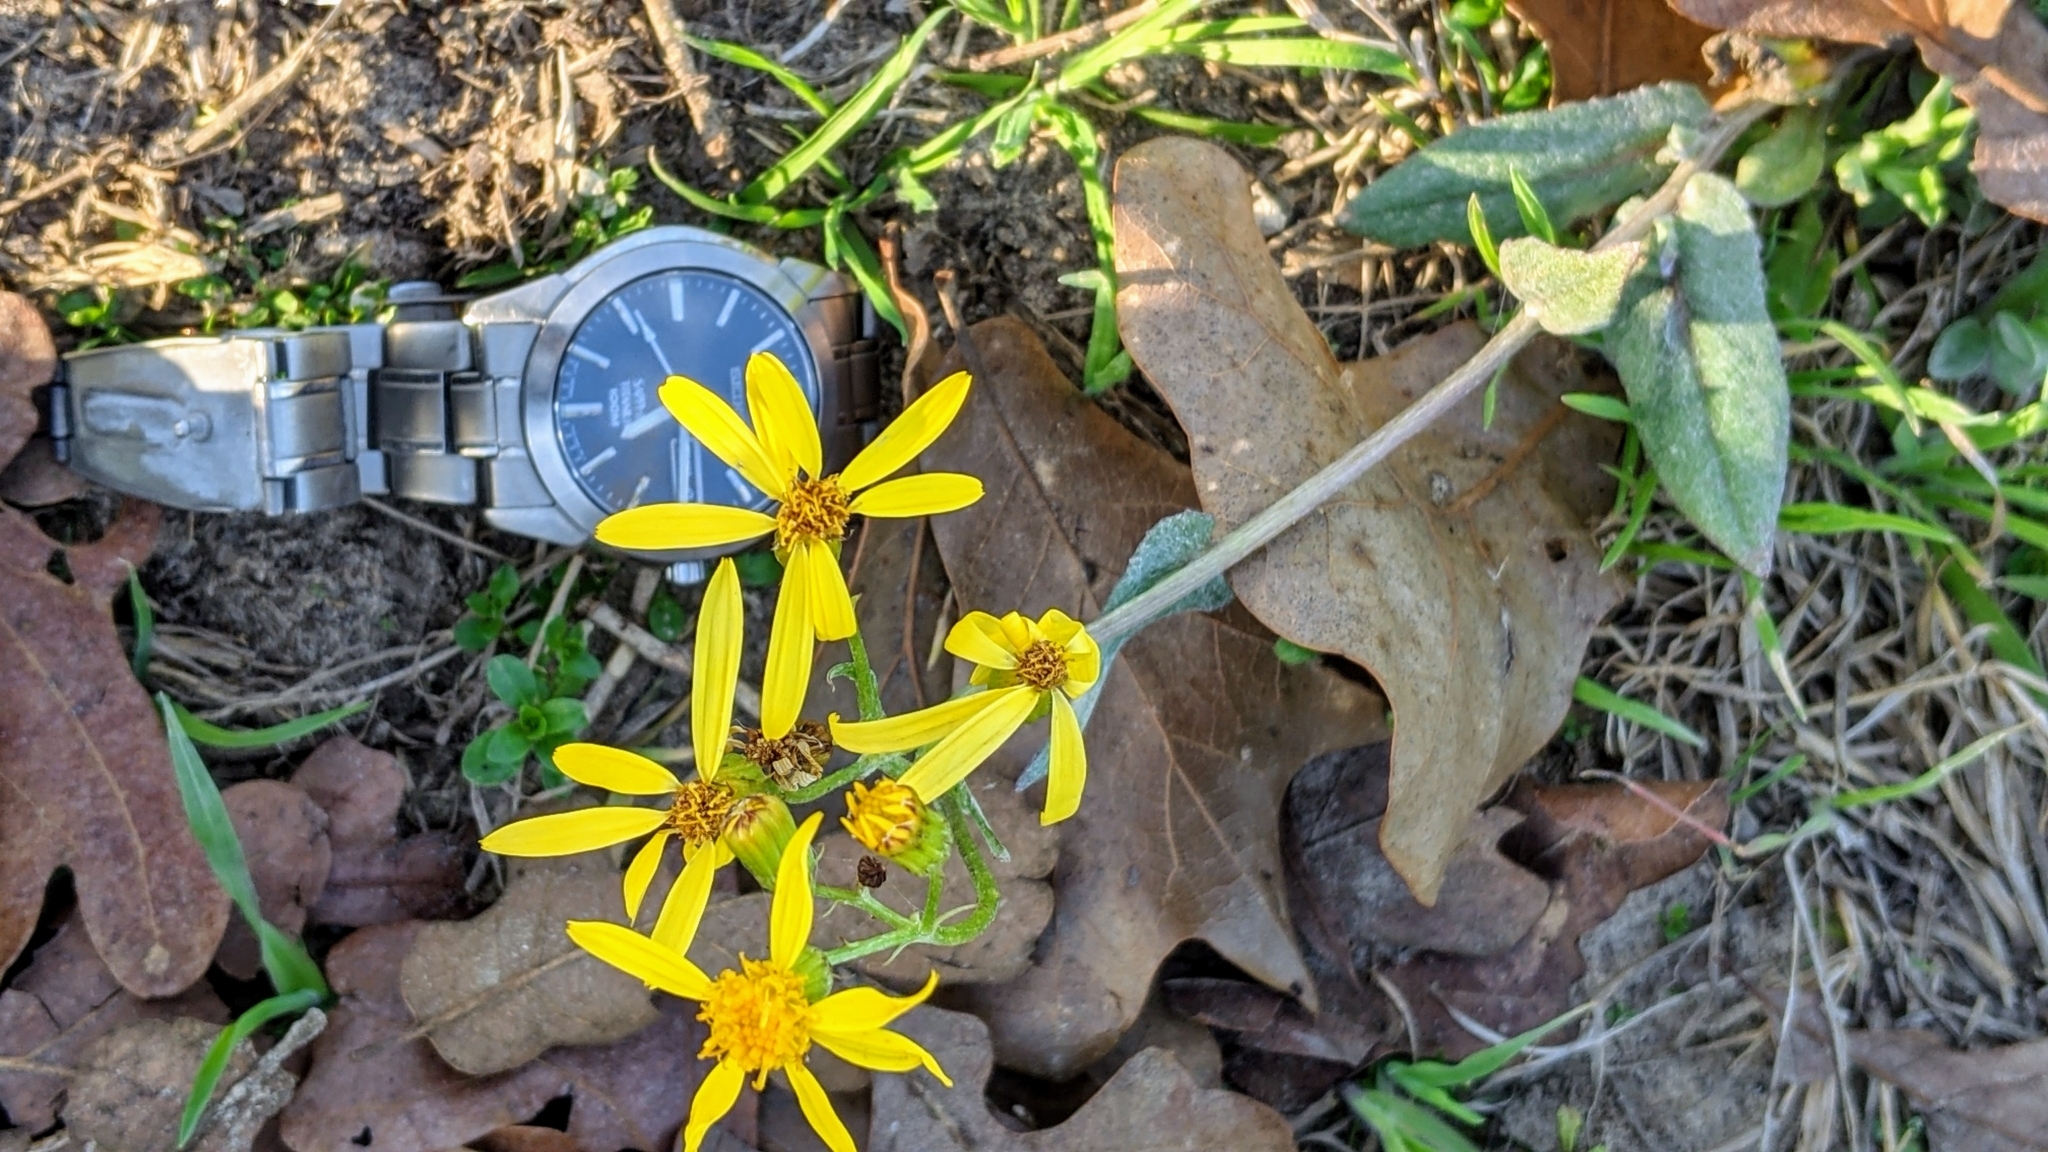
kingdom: Plantae
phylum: Tracheophyta
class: Magnoliopsida
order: Asterales
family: Asteraceae
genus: Senecio
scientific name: Senecio ampullaceus
